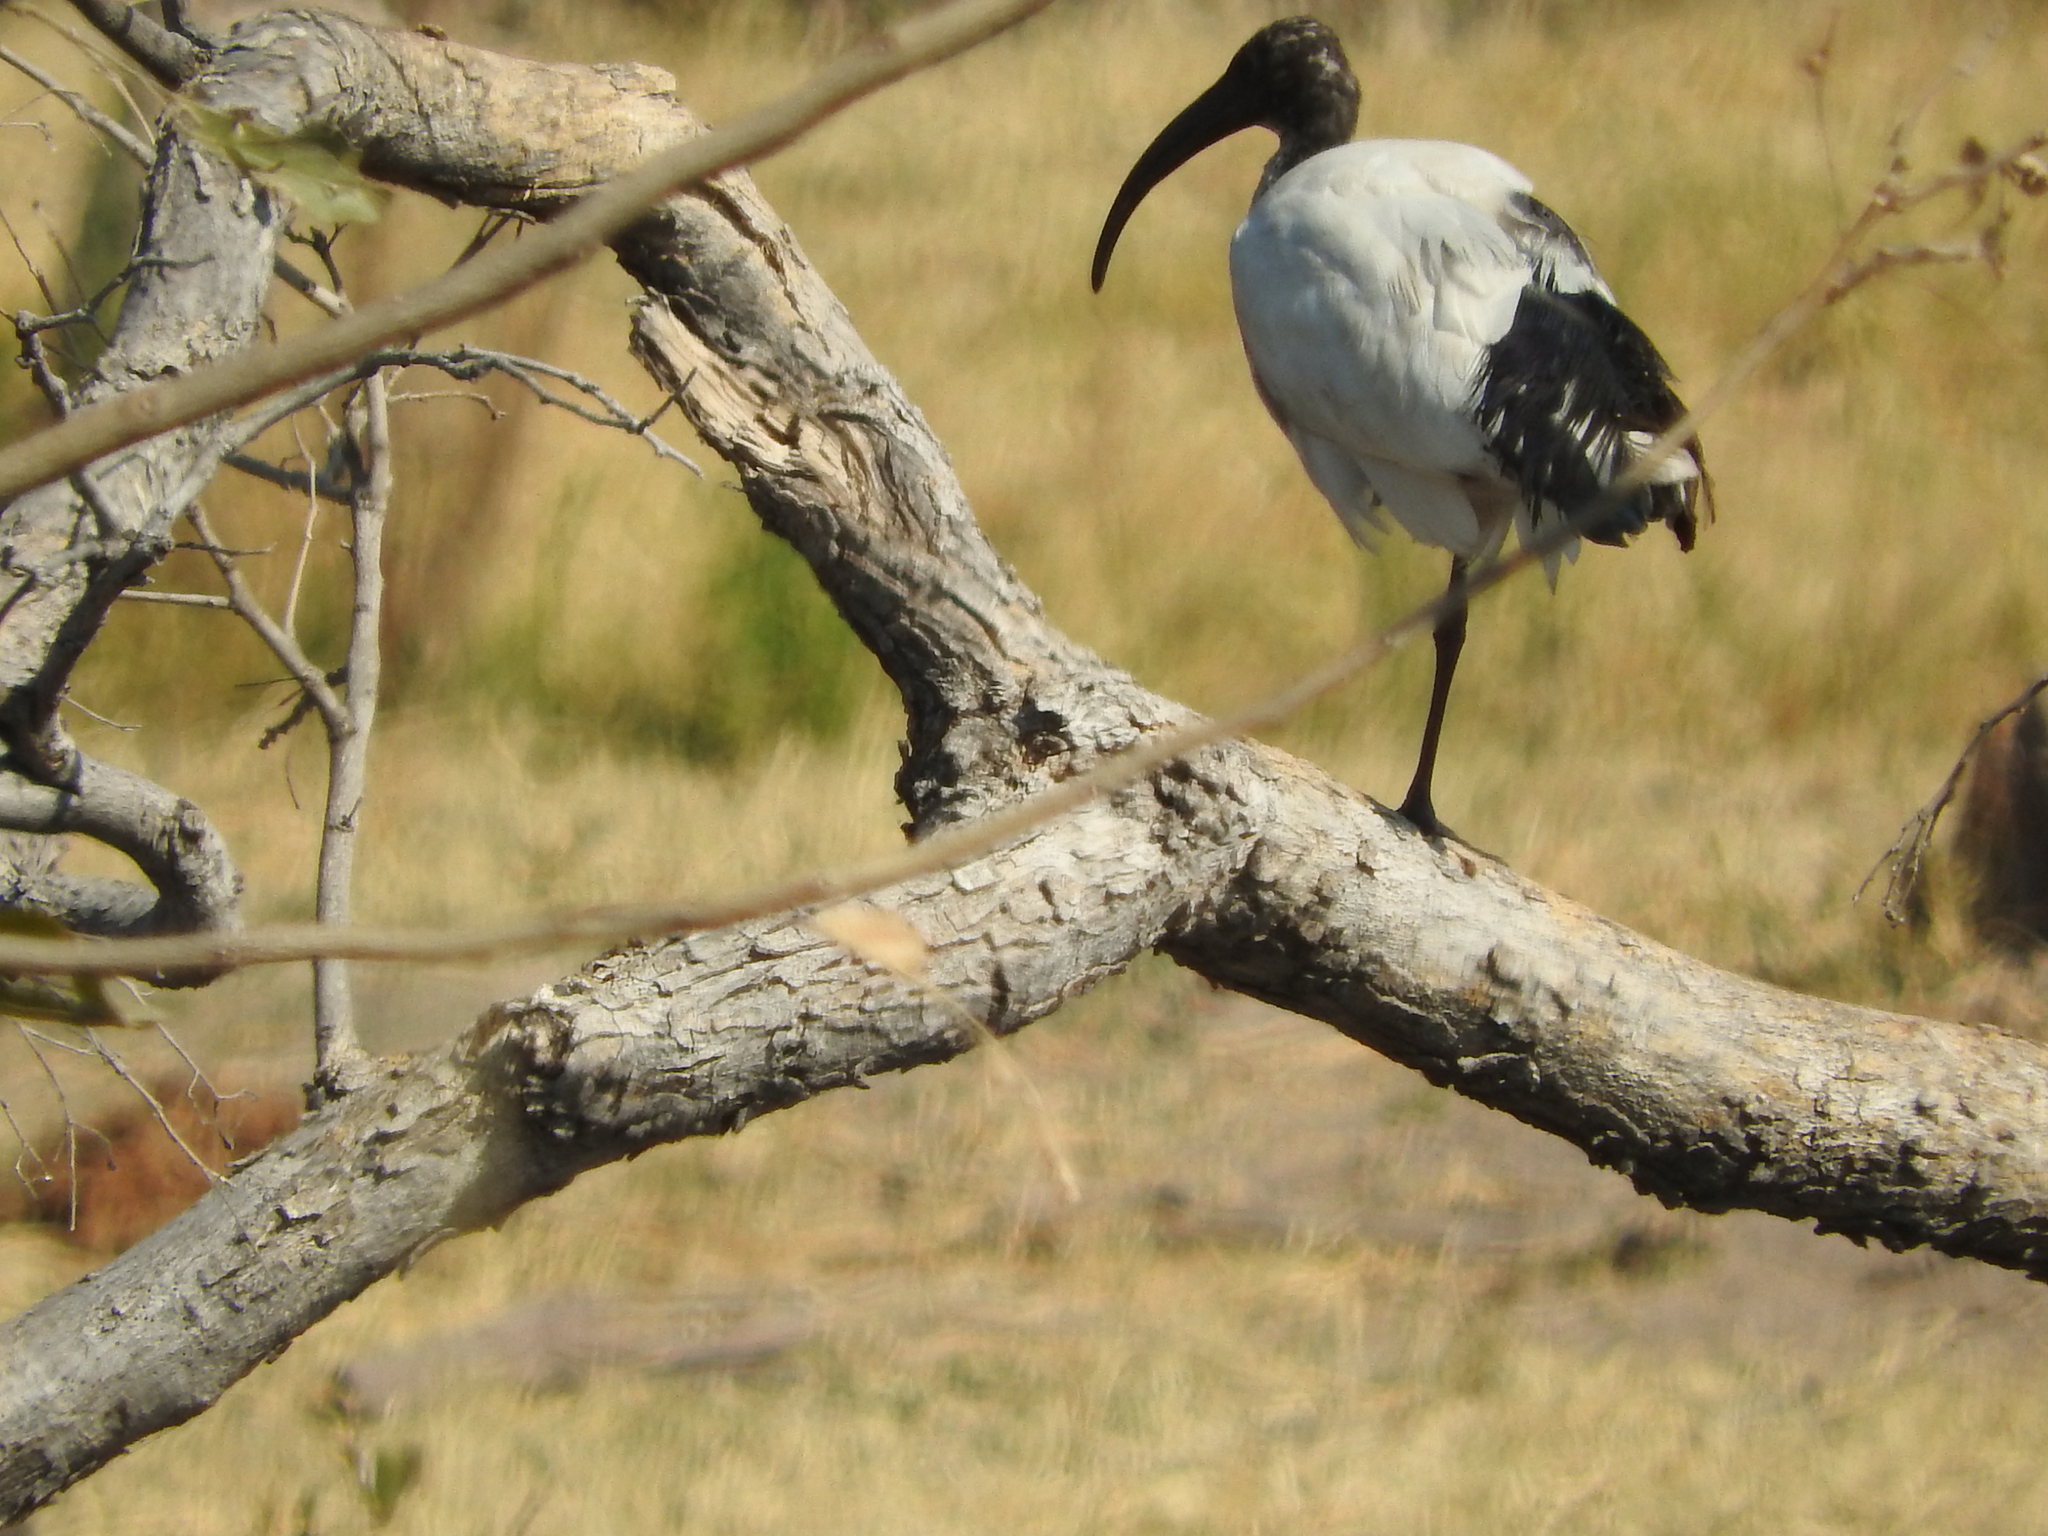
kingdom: Animalia
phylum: Chordata
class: Aves
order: Pelecaniformes
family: Threskiornithidae
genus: Threskiornis
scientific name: Threskiornis aethiopicus
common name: Sacred ibis
